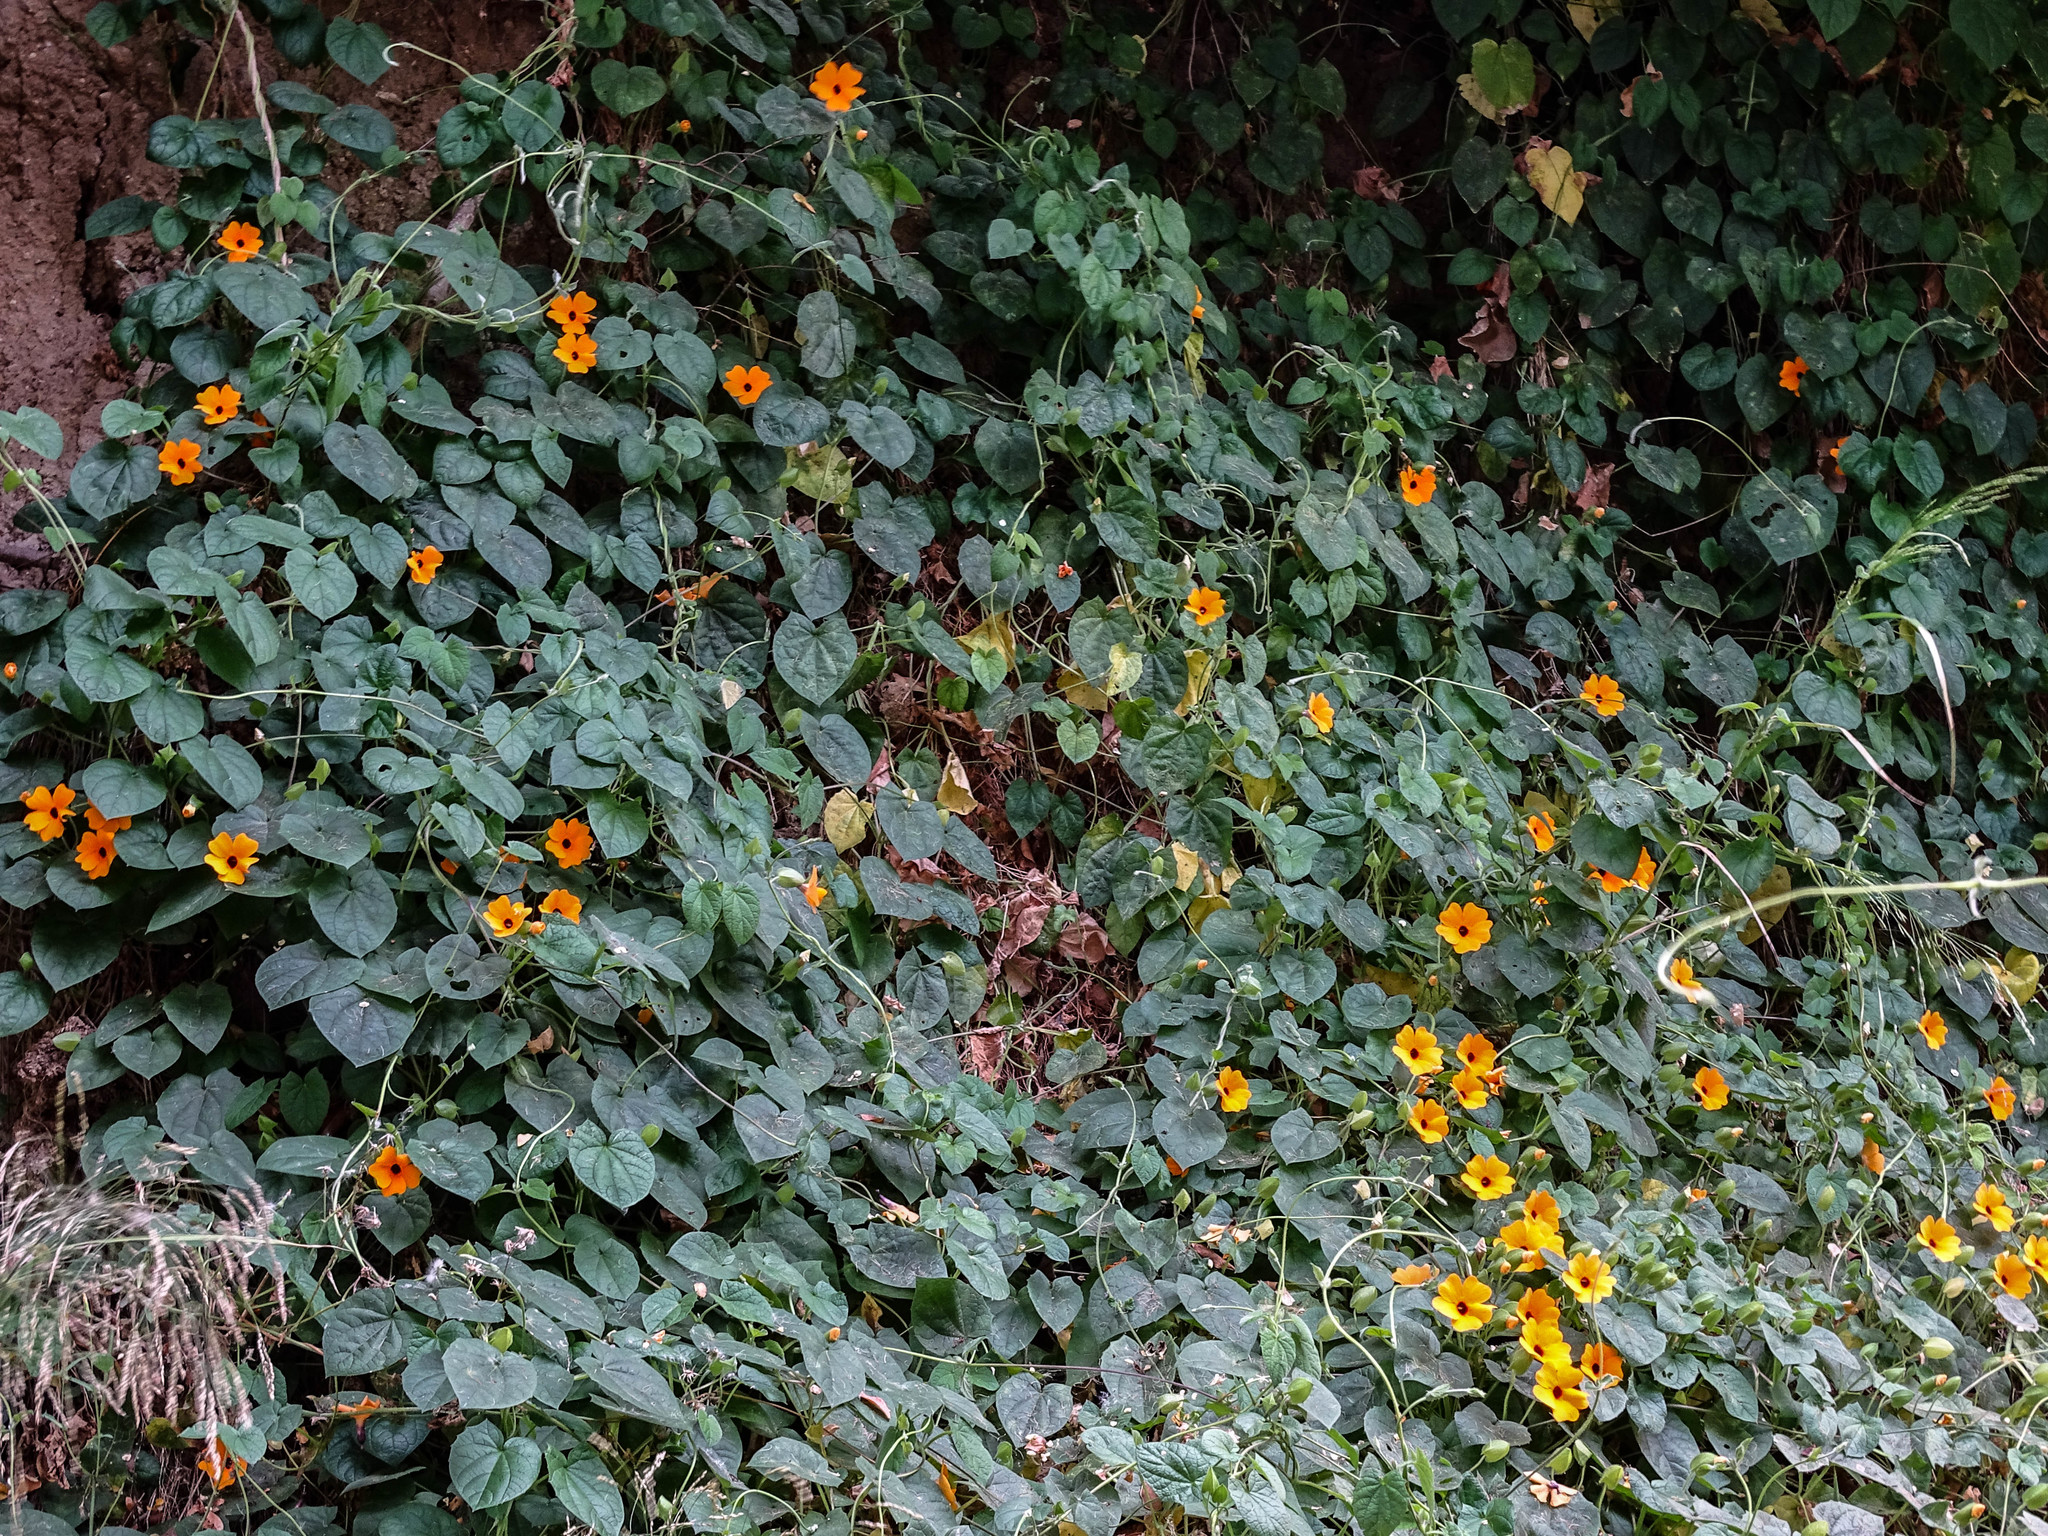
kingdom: Plantae
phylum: Tracheophyta
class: Magnoliopsida
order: Lamiales
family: Acanthaceae
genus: Thunbergia
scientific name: Thunbergia alata
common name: Blackeyed susan vine
